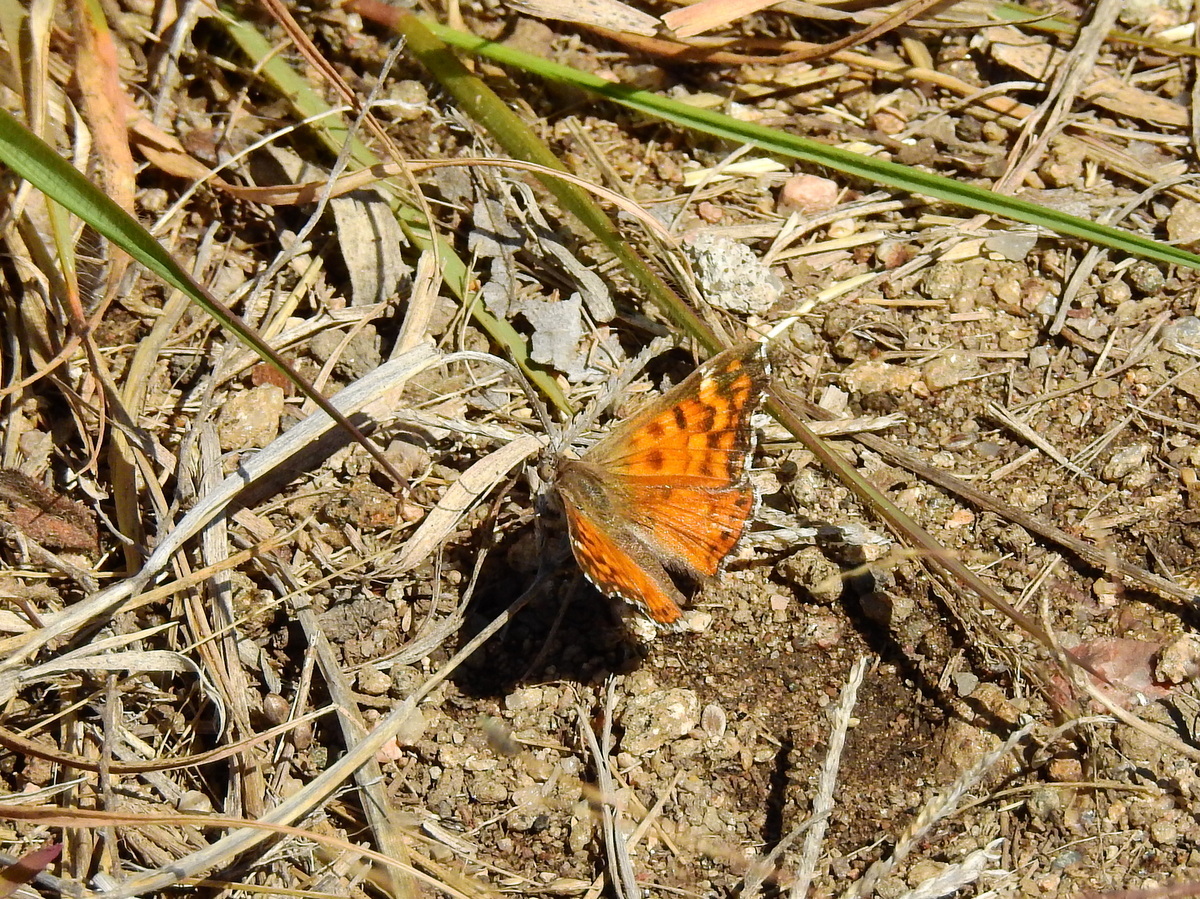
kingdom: Animalia
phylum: Arthropoda
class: Insecta
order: Lepidoptera
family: Lycaenidae
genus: Aricoris
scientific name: Aricoris chilensis
